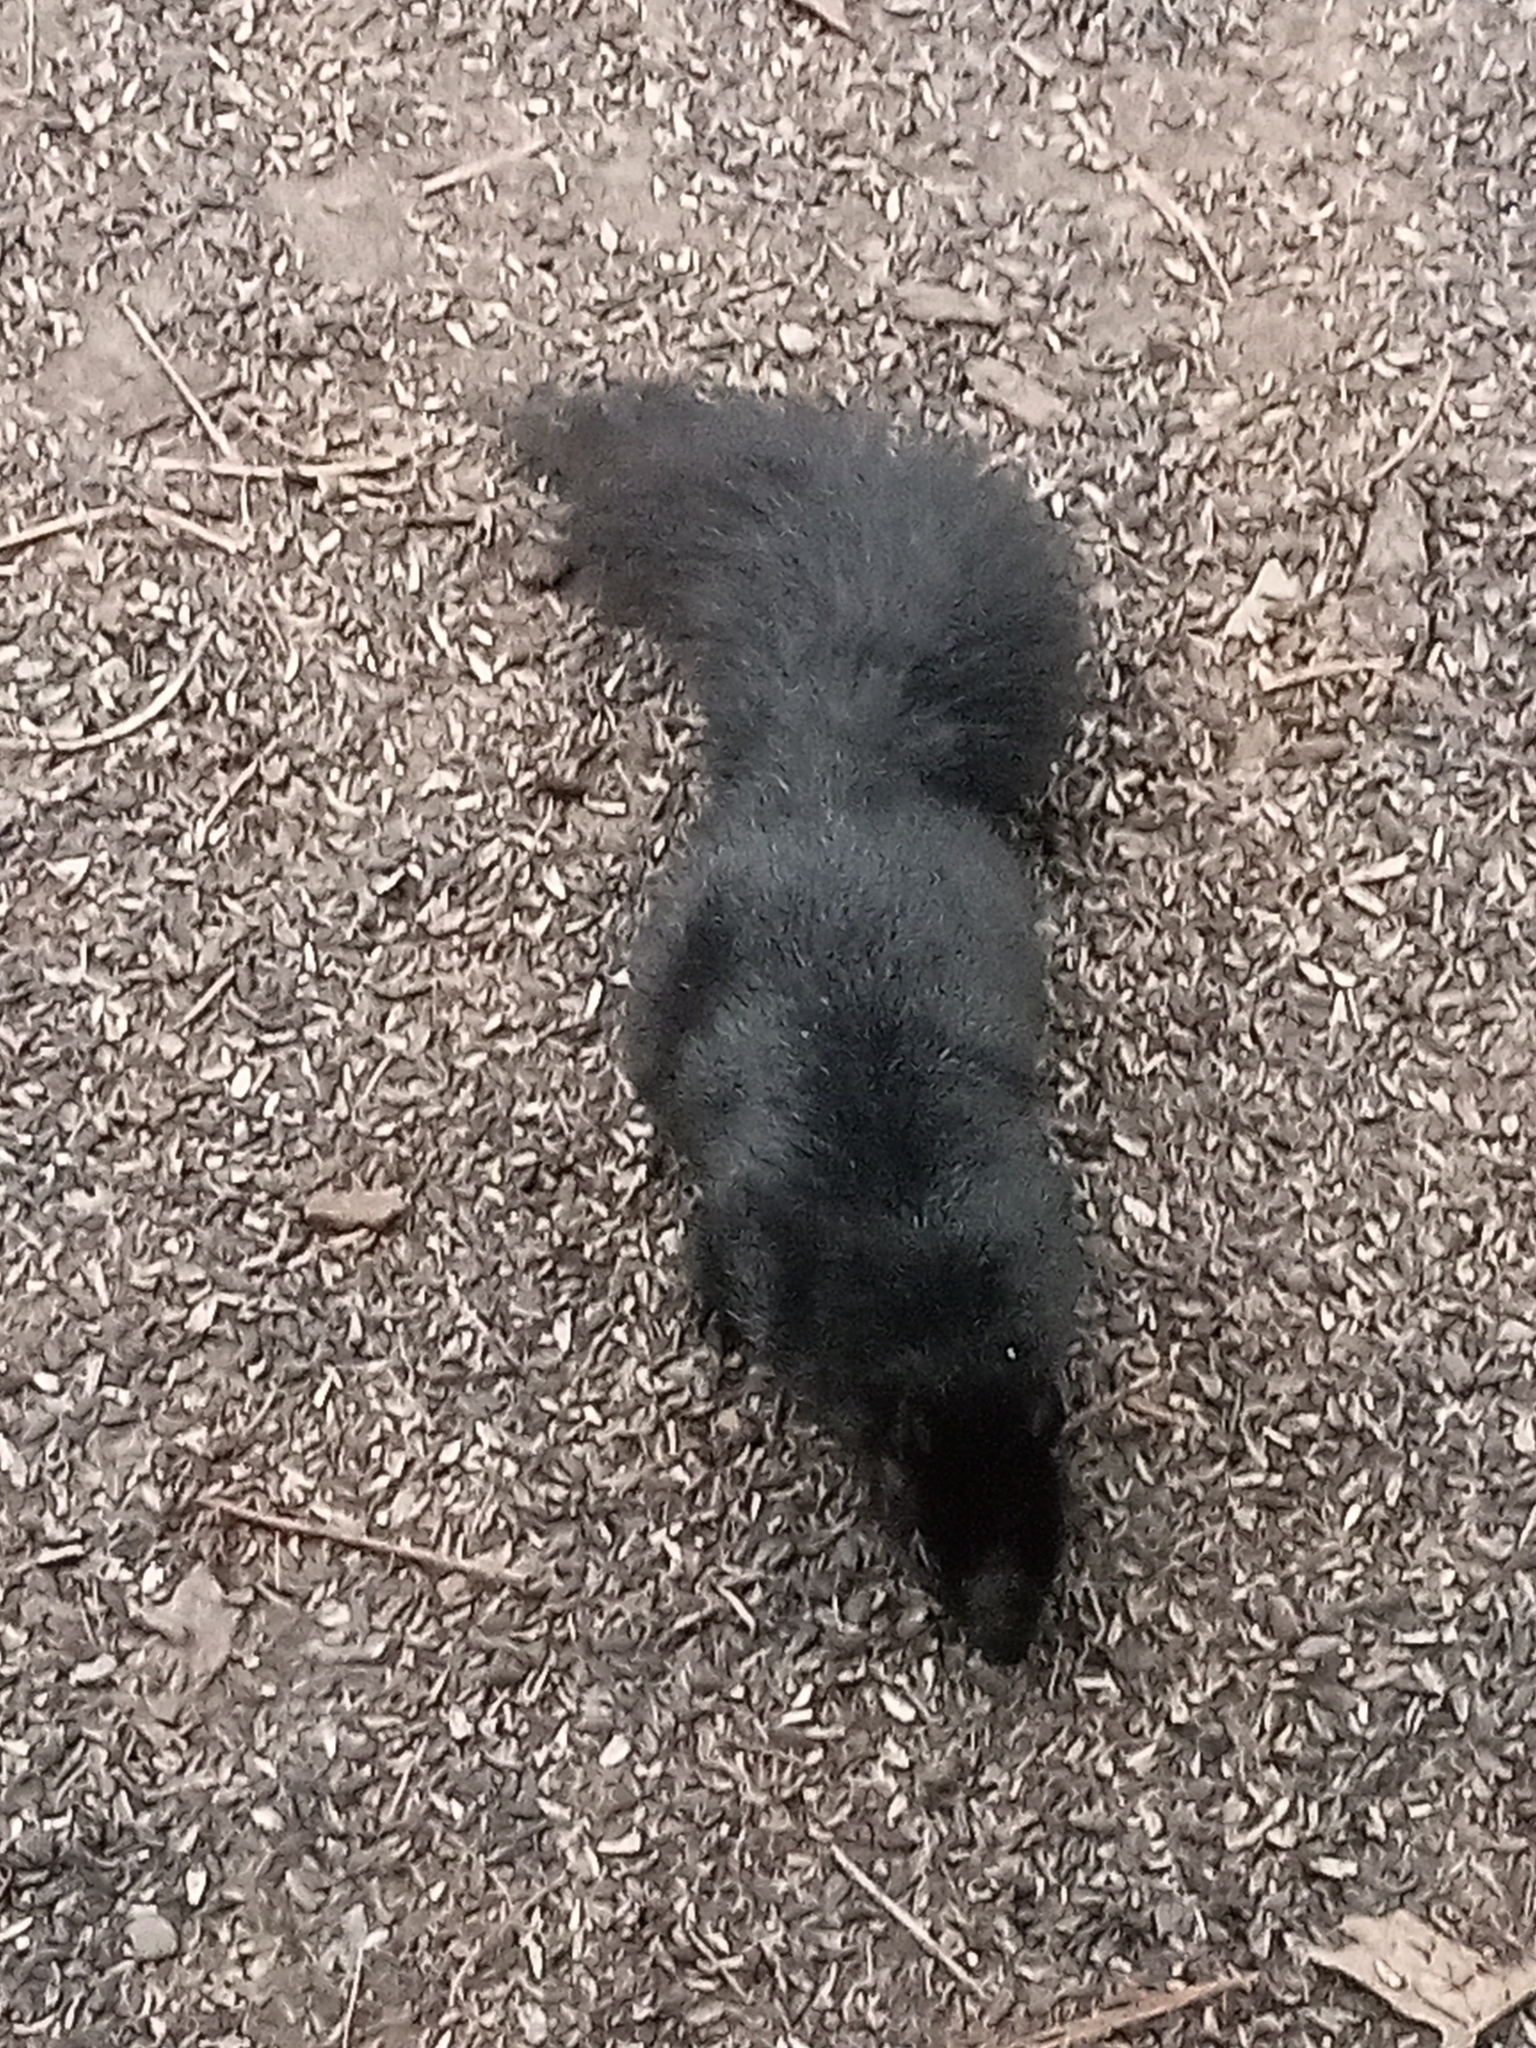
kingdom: Animalia
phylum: Chordata
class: Mammalia
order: Rodentia
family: Sciuridae
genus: Sciurus
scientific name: Sciurus carolinensis
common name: Eastern gray squirrel
